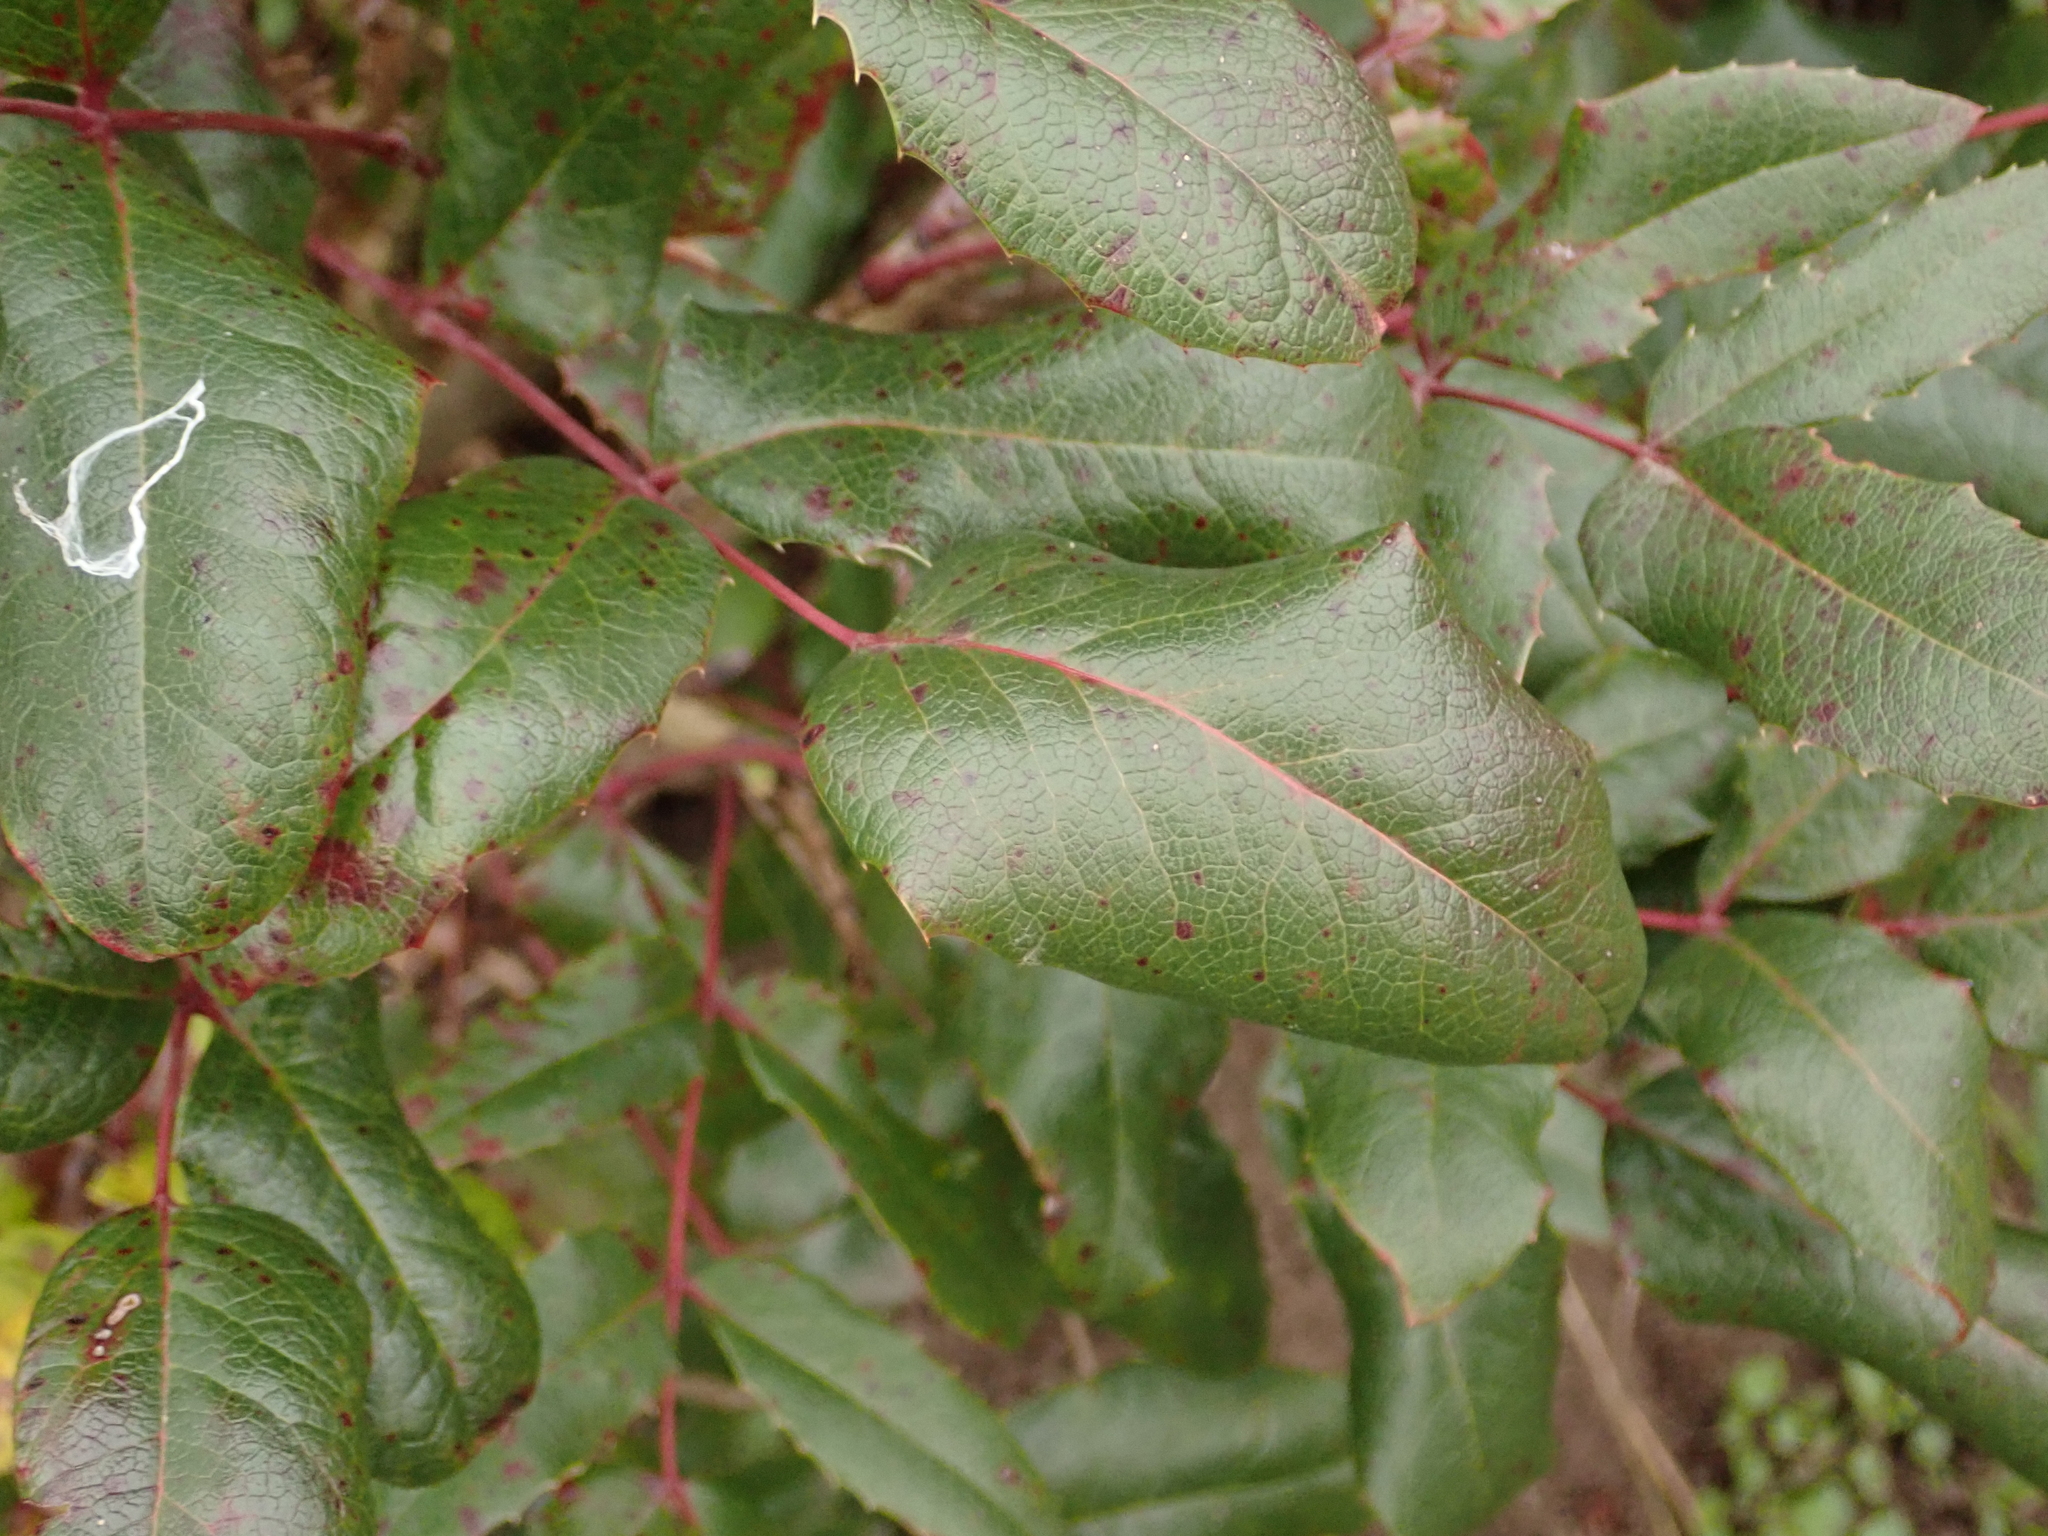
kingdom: Plantae
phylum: Tracheophyta
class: Magnoliopsida
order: Ranunculales
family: Berberidaceae
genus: Mahonia
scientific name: Mahonia aquifolium
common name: Oregon-grape
